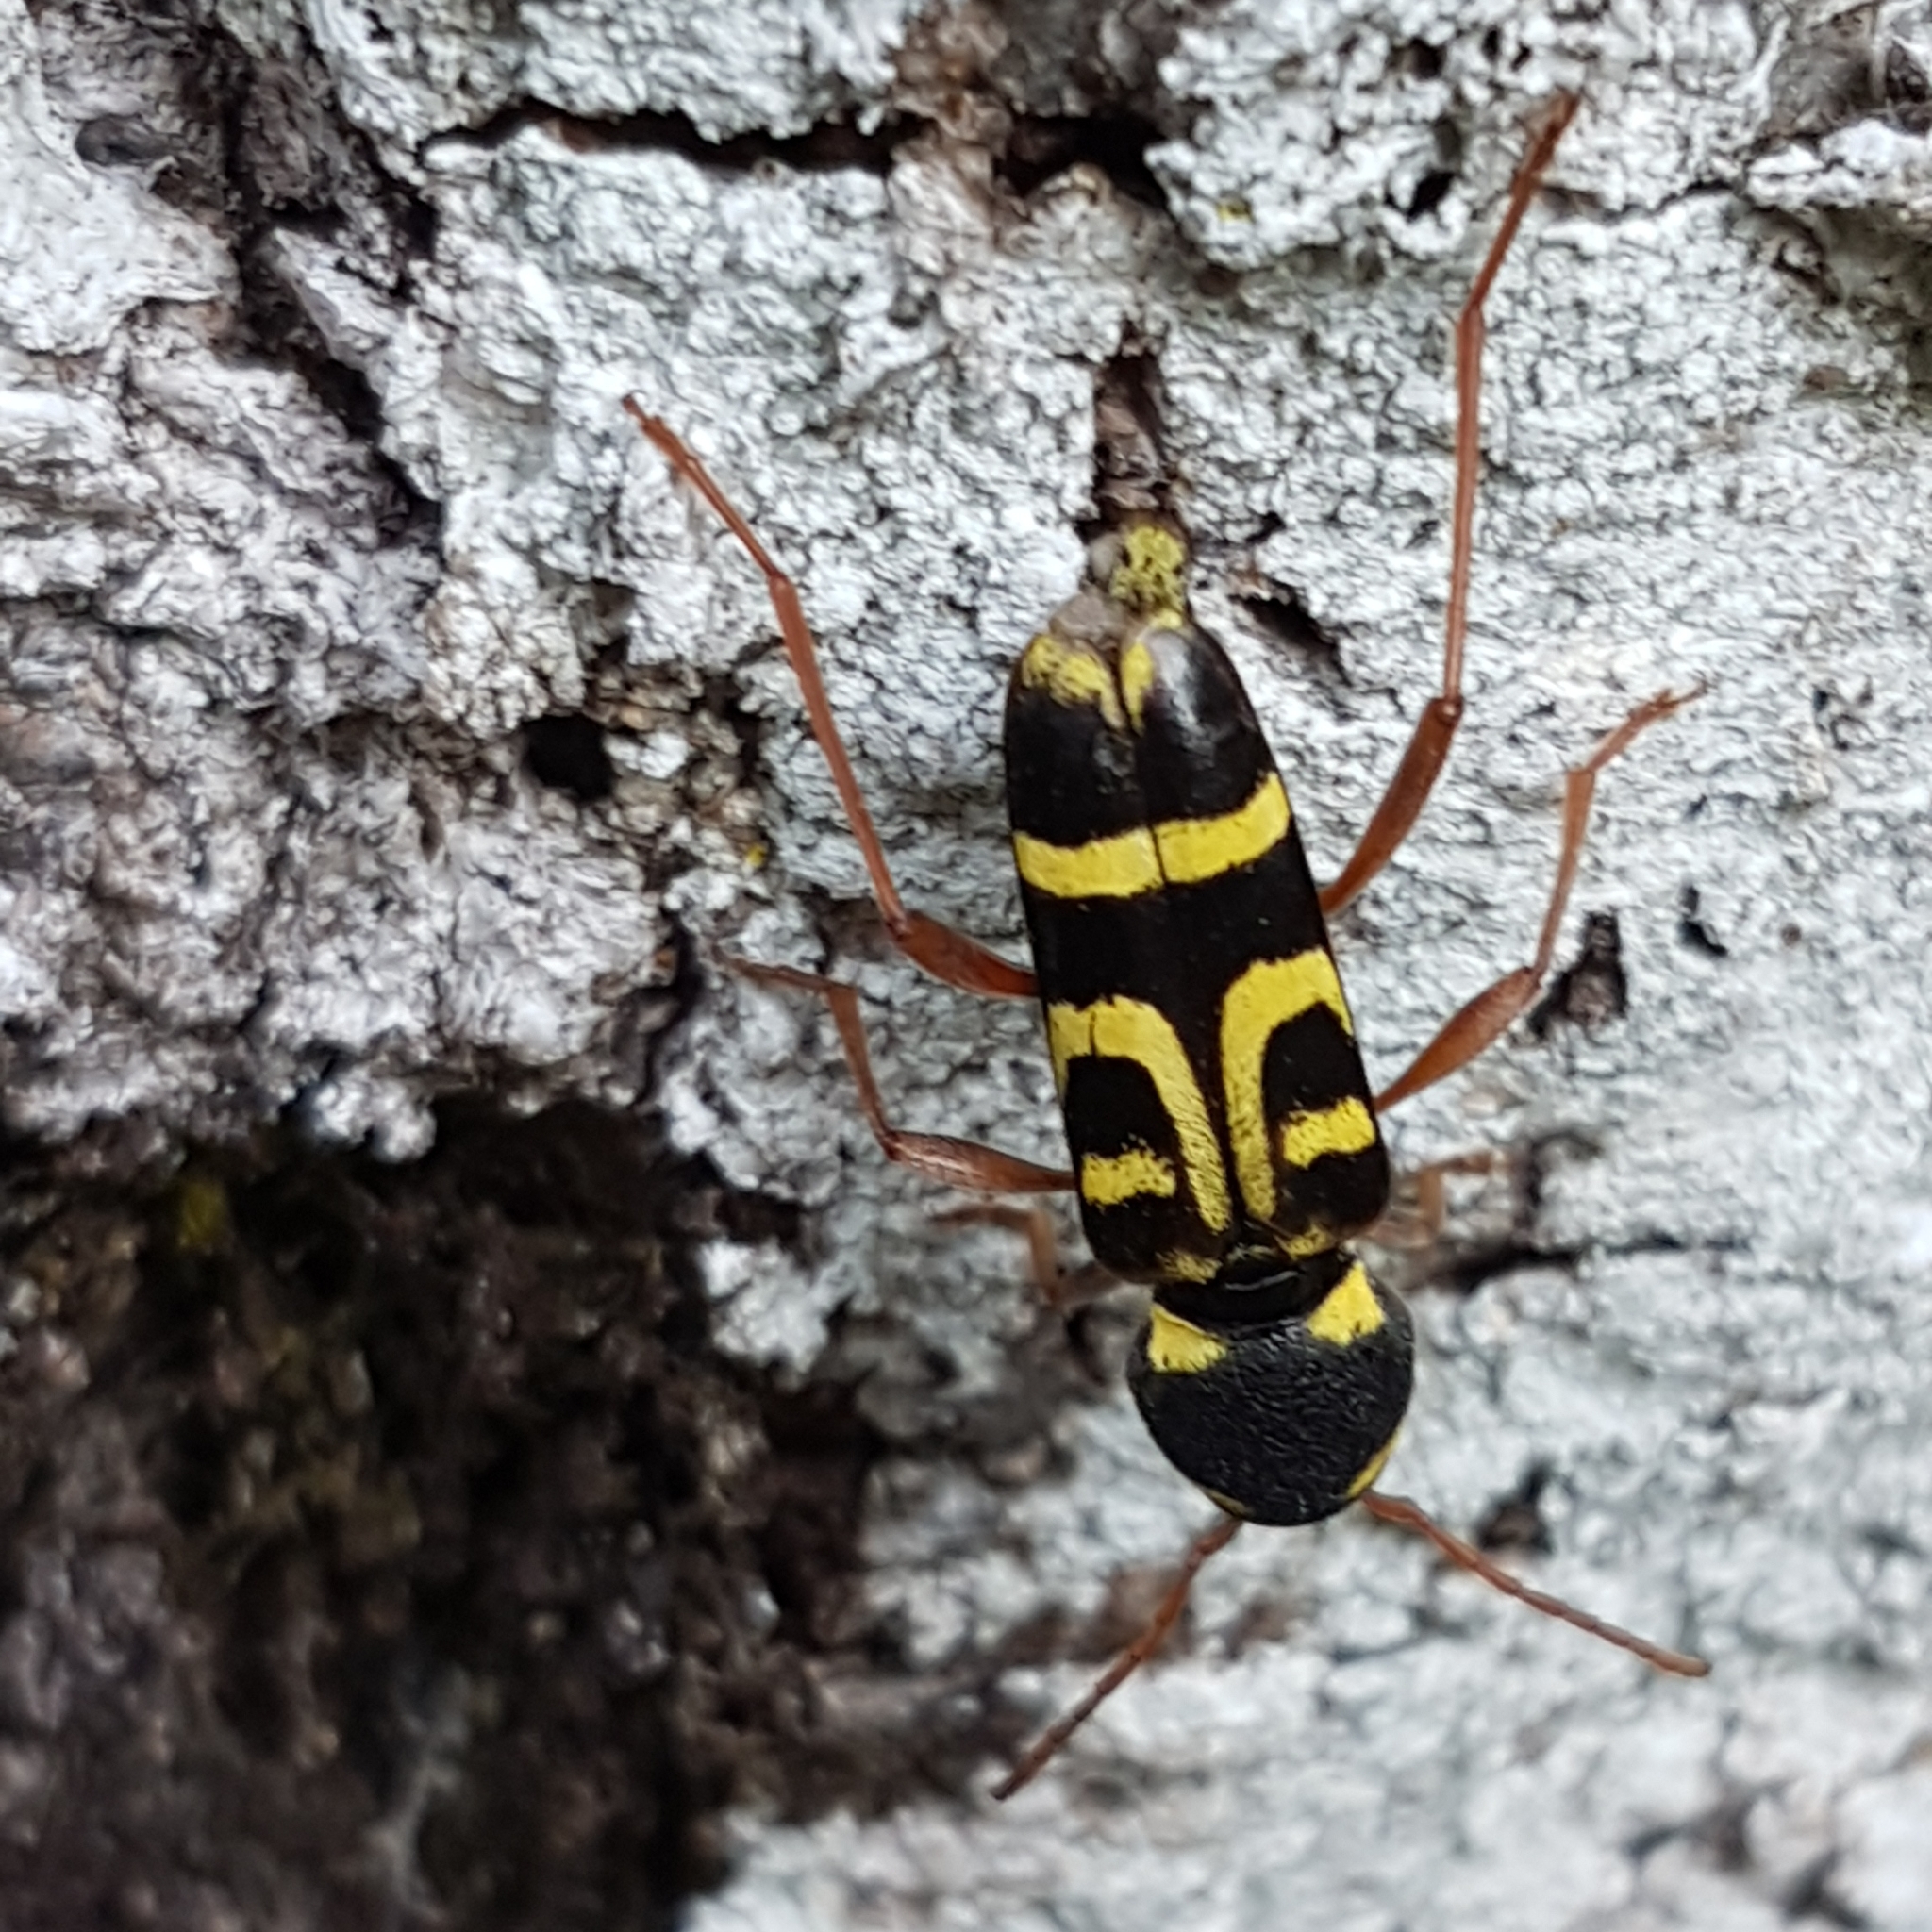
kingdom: Animalia
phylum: Arthropoda
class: Insecta
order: Coleoptera
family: Cerambycidae
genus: Xylotrechus
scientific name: Xylotrechus arvicola
